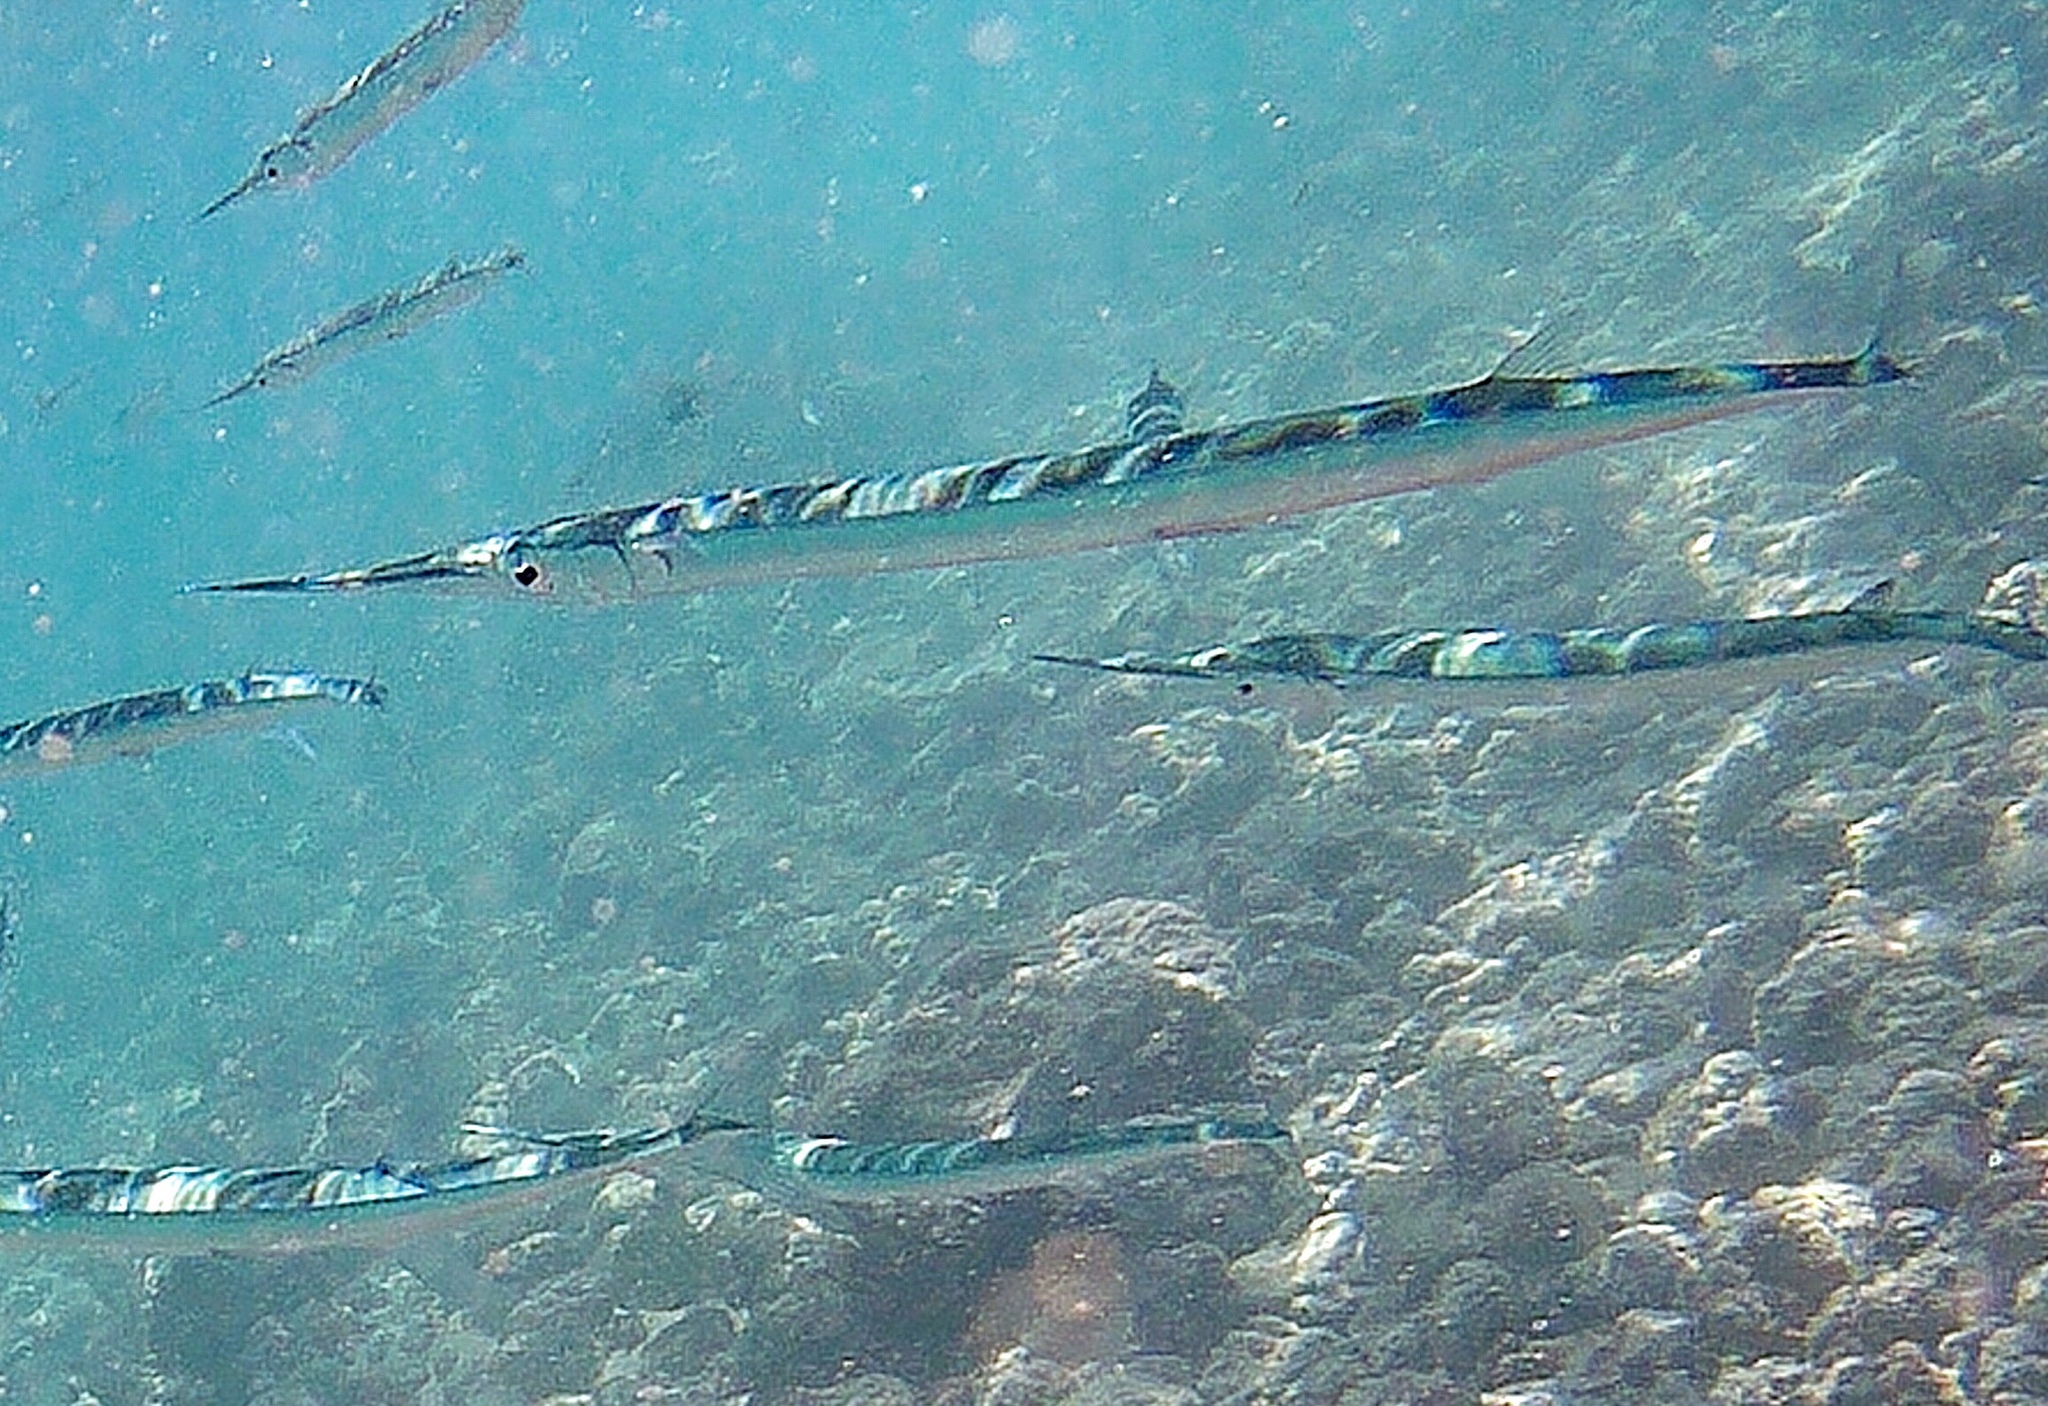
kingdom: Animalia
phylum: Chordata
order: Beloniformes
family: Belonidae
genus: Platybelone
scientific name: Platybelone argalus
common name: Keeltail needlefish
